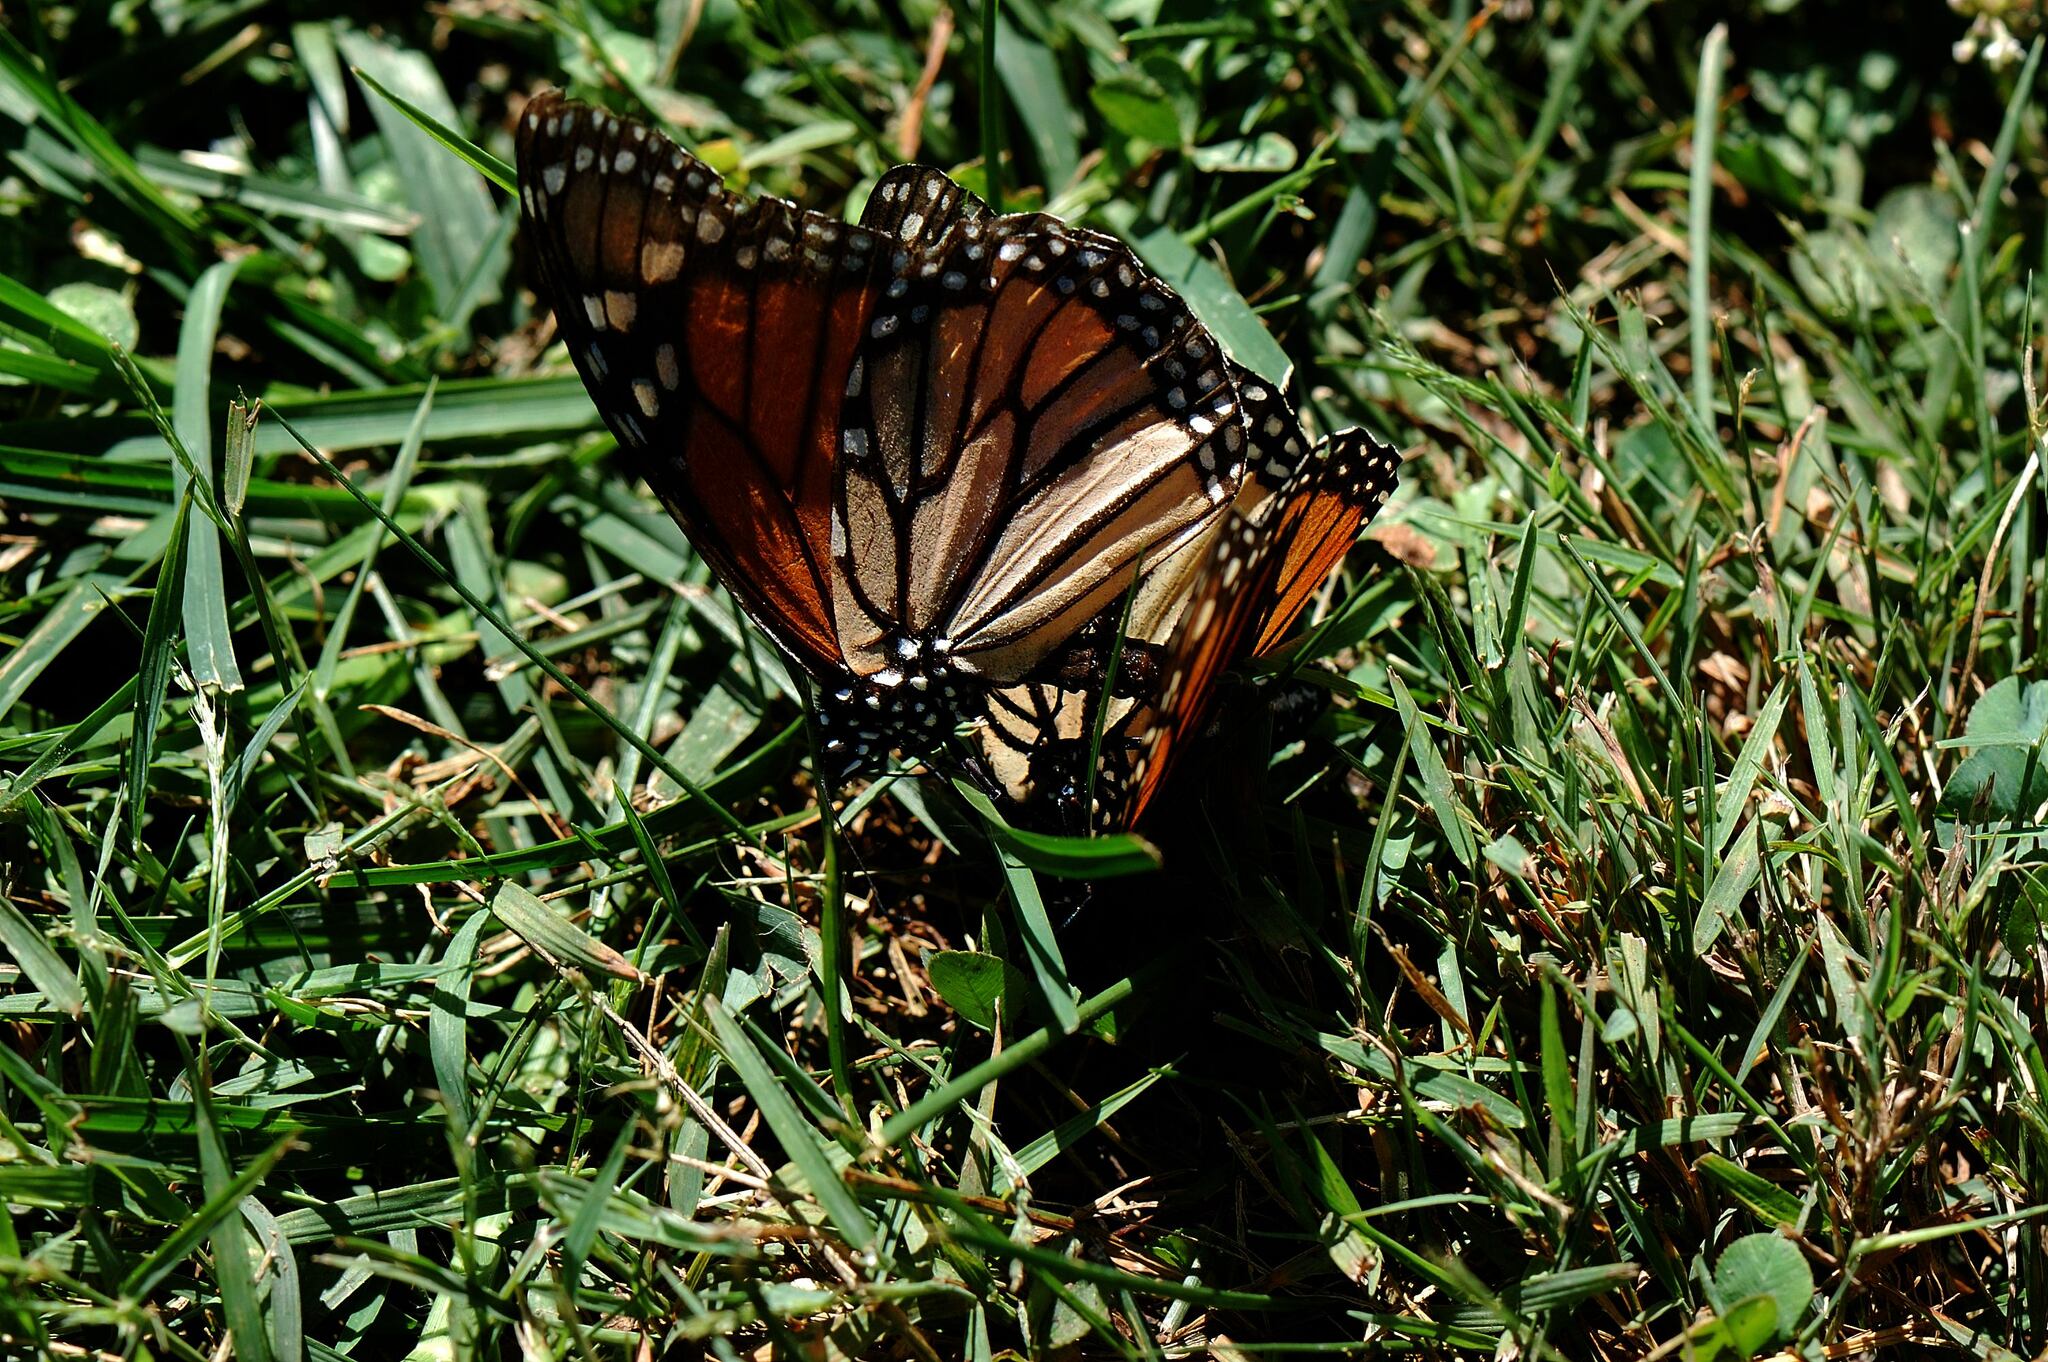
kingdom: Animalia
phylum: Arthropoda
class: Insecta
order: Lepidoptera
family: Nymphalidae
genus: Danaus
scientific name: Danaus plexippus
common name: Monarch
